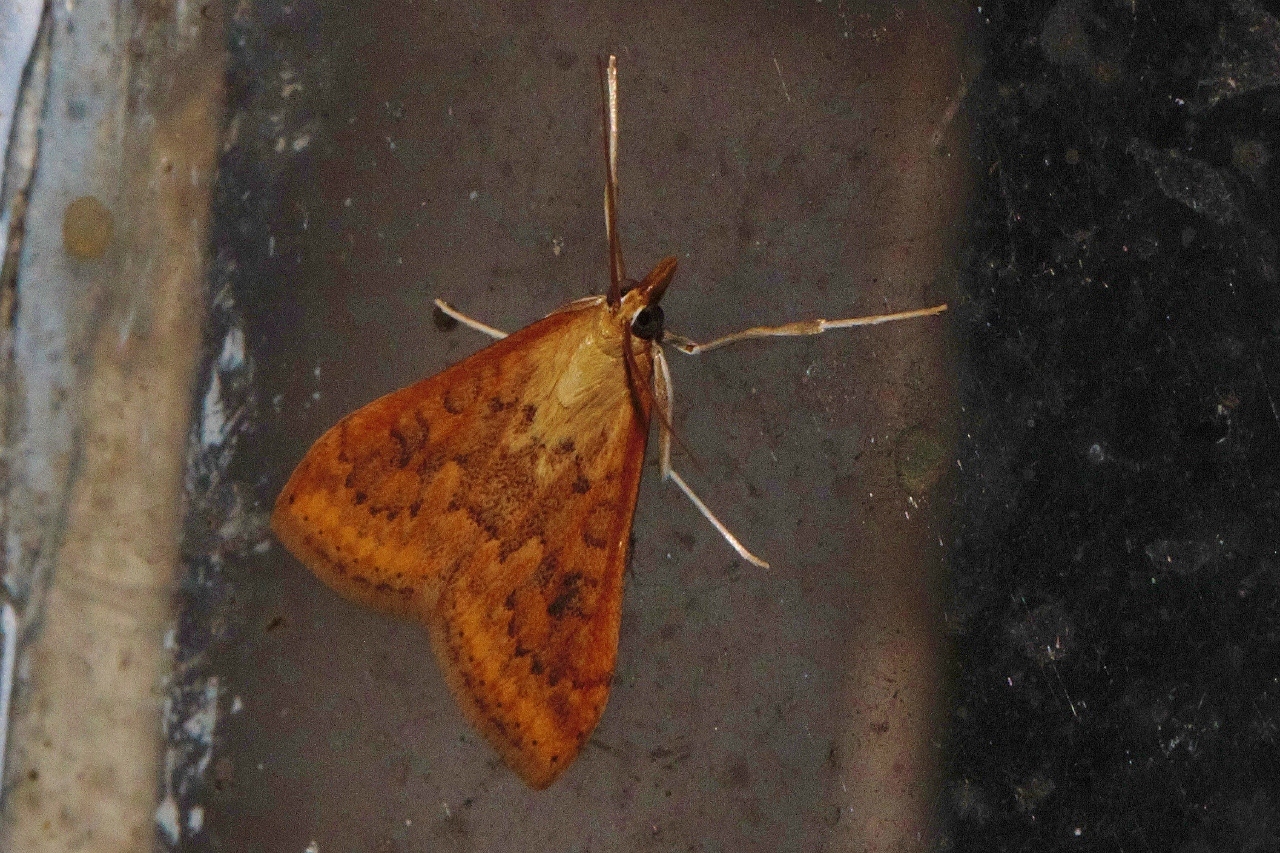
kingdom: Animalia
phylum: Arthropoda
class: Insecta
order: Lepidoptera
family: Crambidae
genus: Udea
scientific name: Udea ferrugalis
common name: Rusty dot
